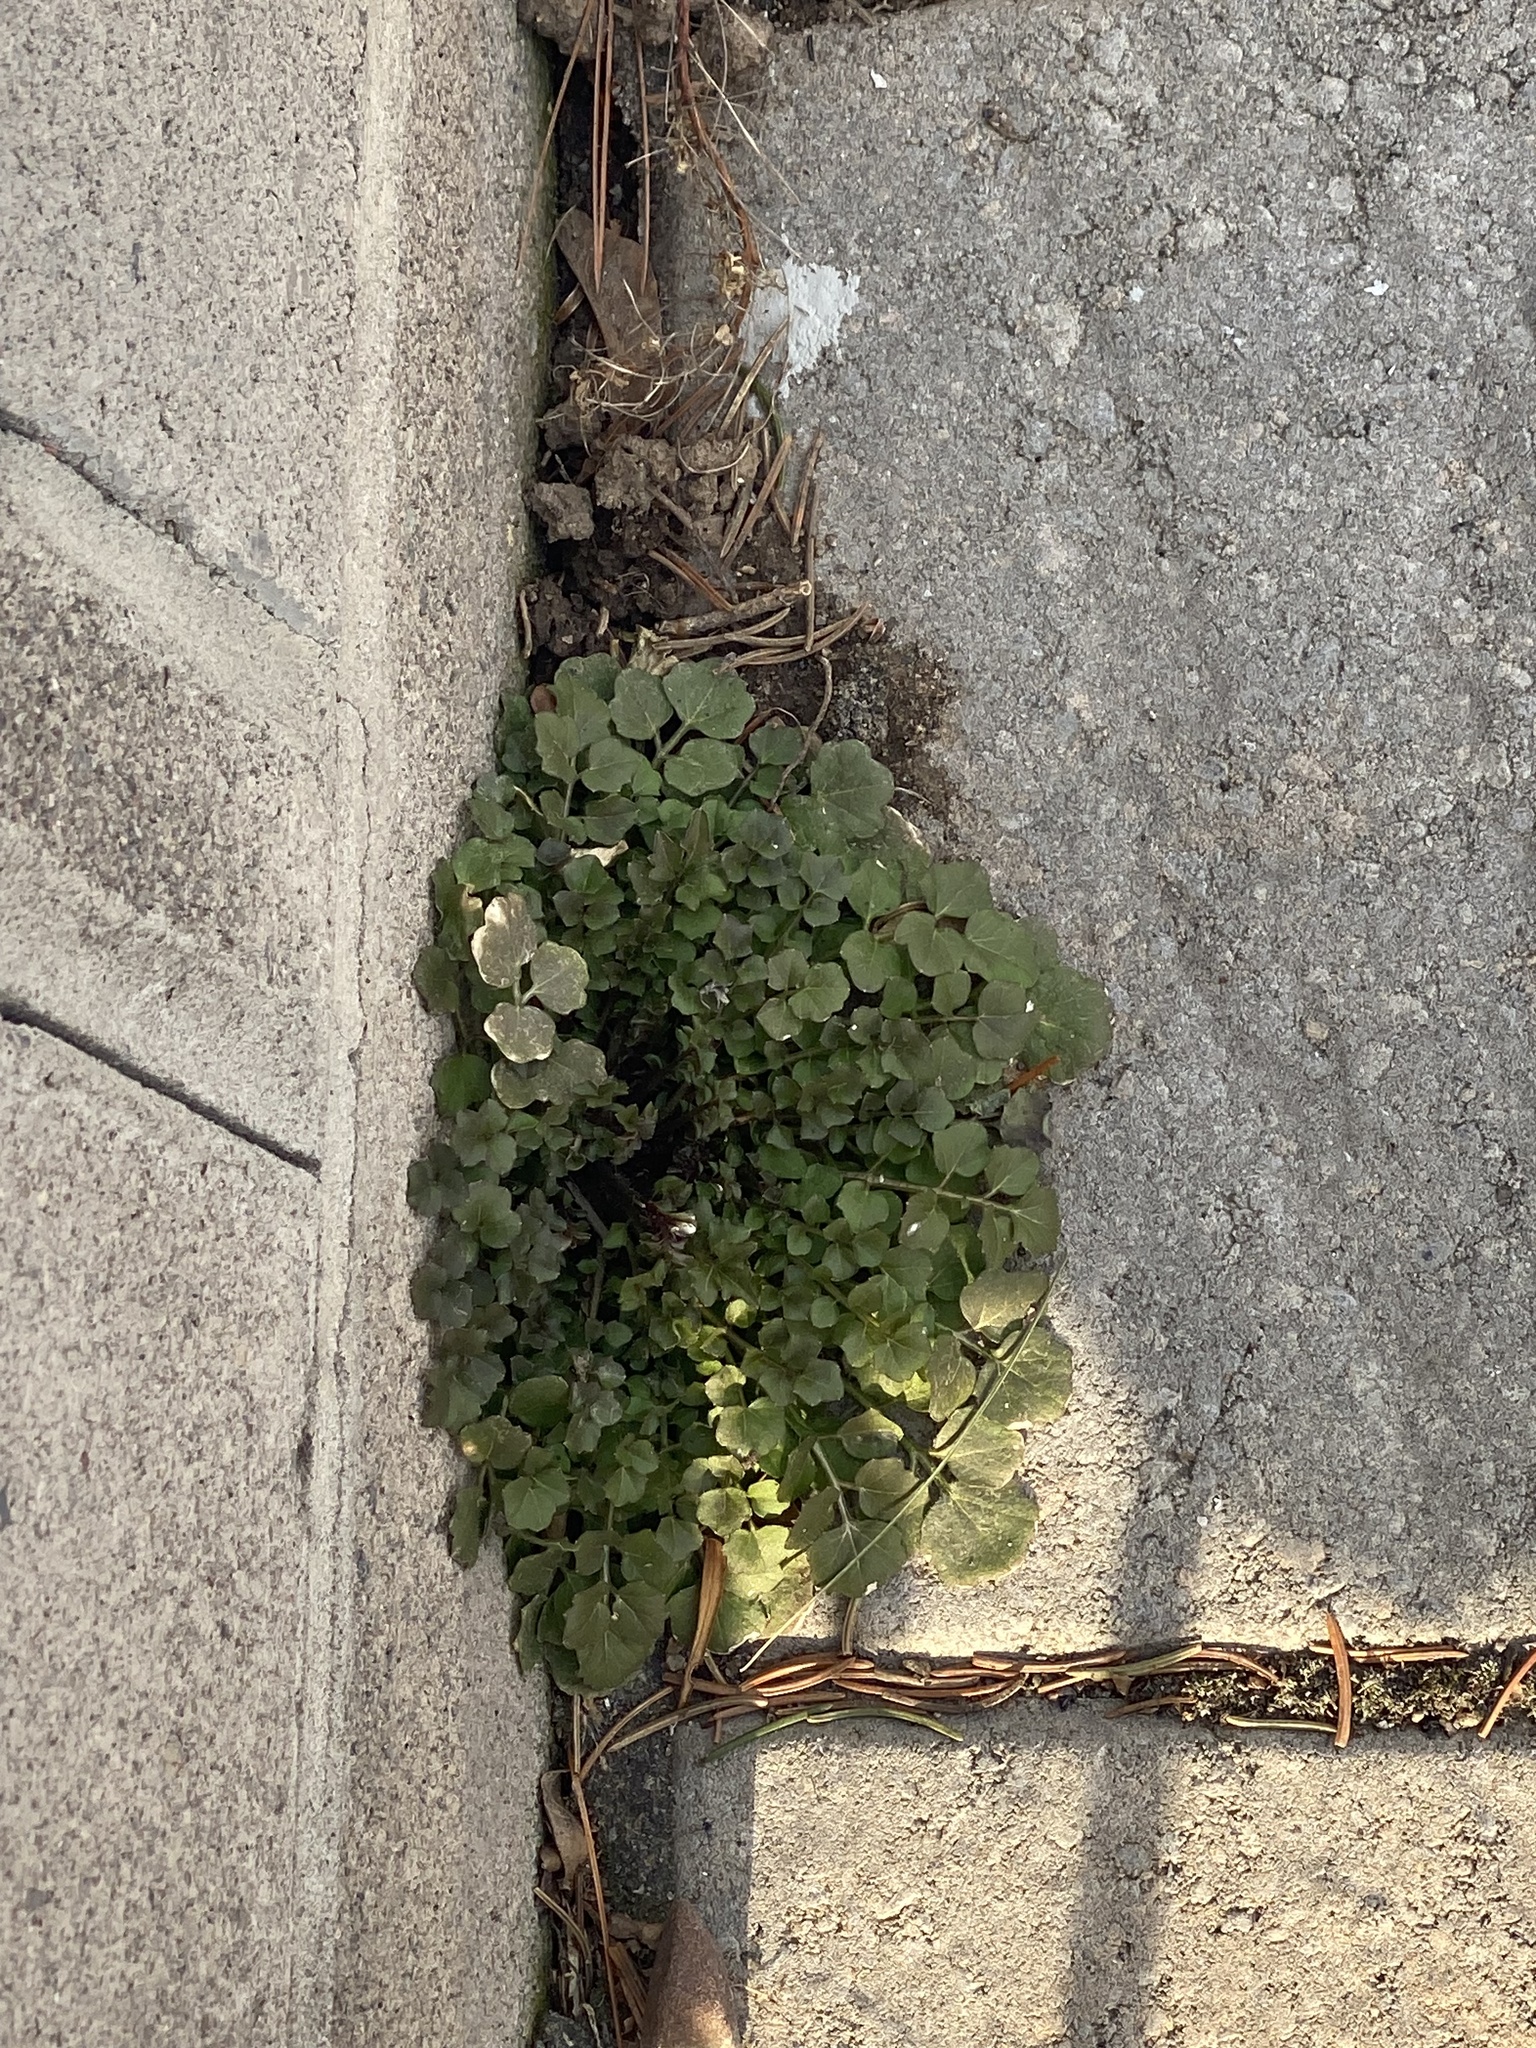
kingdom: Plantae
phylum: Tracheophyta
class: Magnoliopsida
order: Brassicales
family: Brassicaceae
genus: Cardamine
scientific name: Cardamine hirsuta
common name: Hairy bittercress
